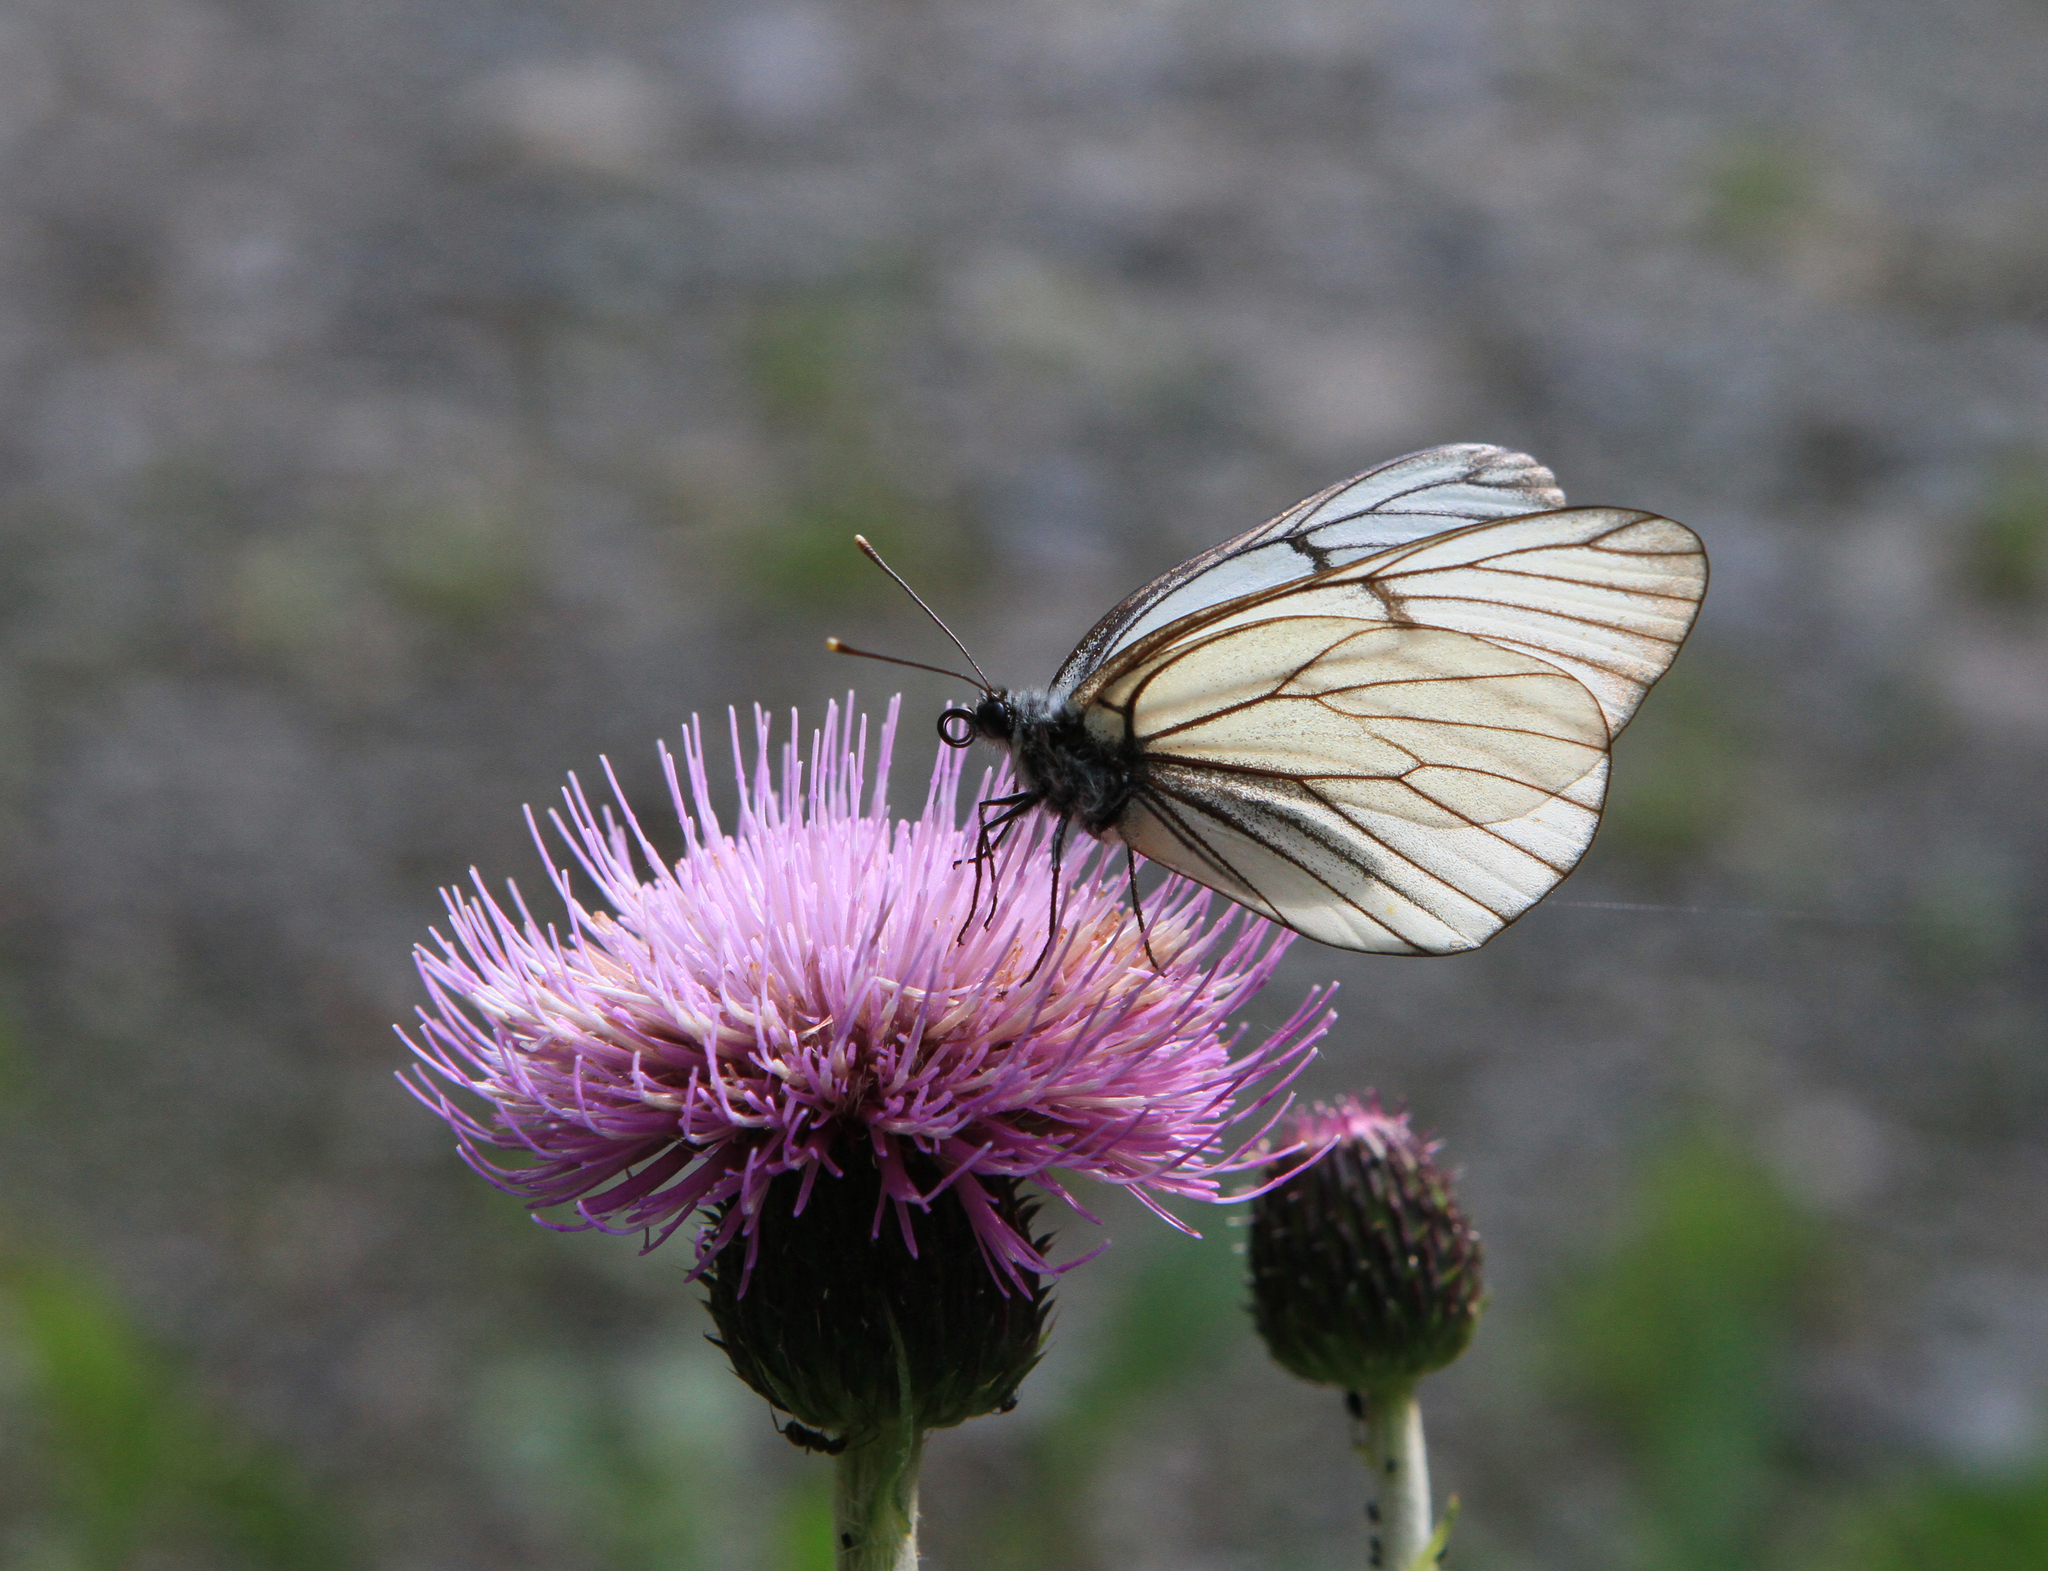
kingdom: Plantae
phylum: Tracheophyta
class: Magnoliopsida
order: Asterales
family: Asteraceae
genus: Cirsium
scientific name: Cirsium helenioides
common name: Melancholy thistle
